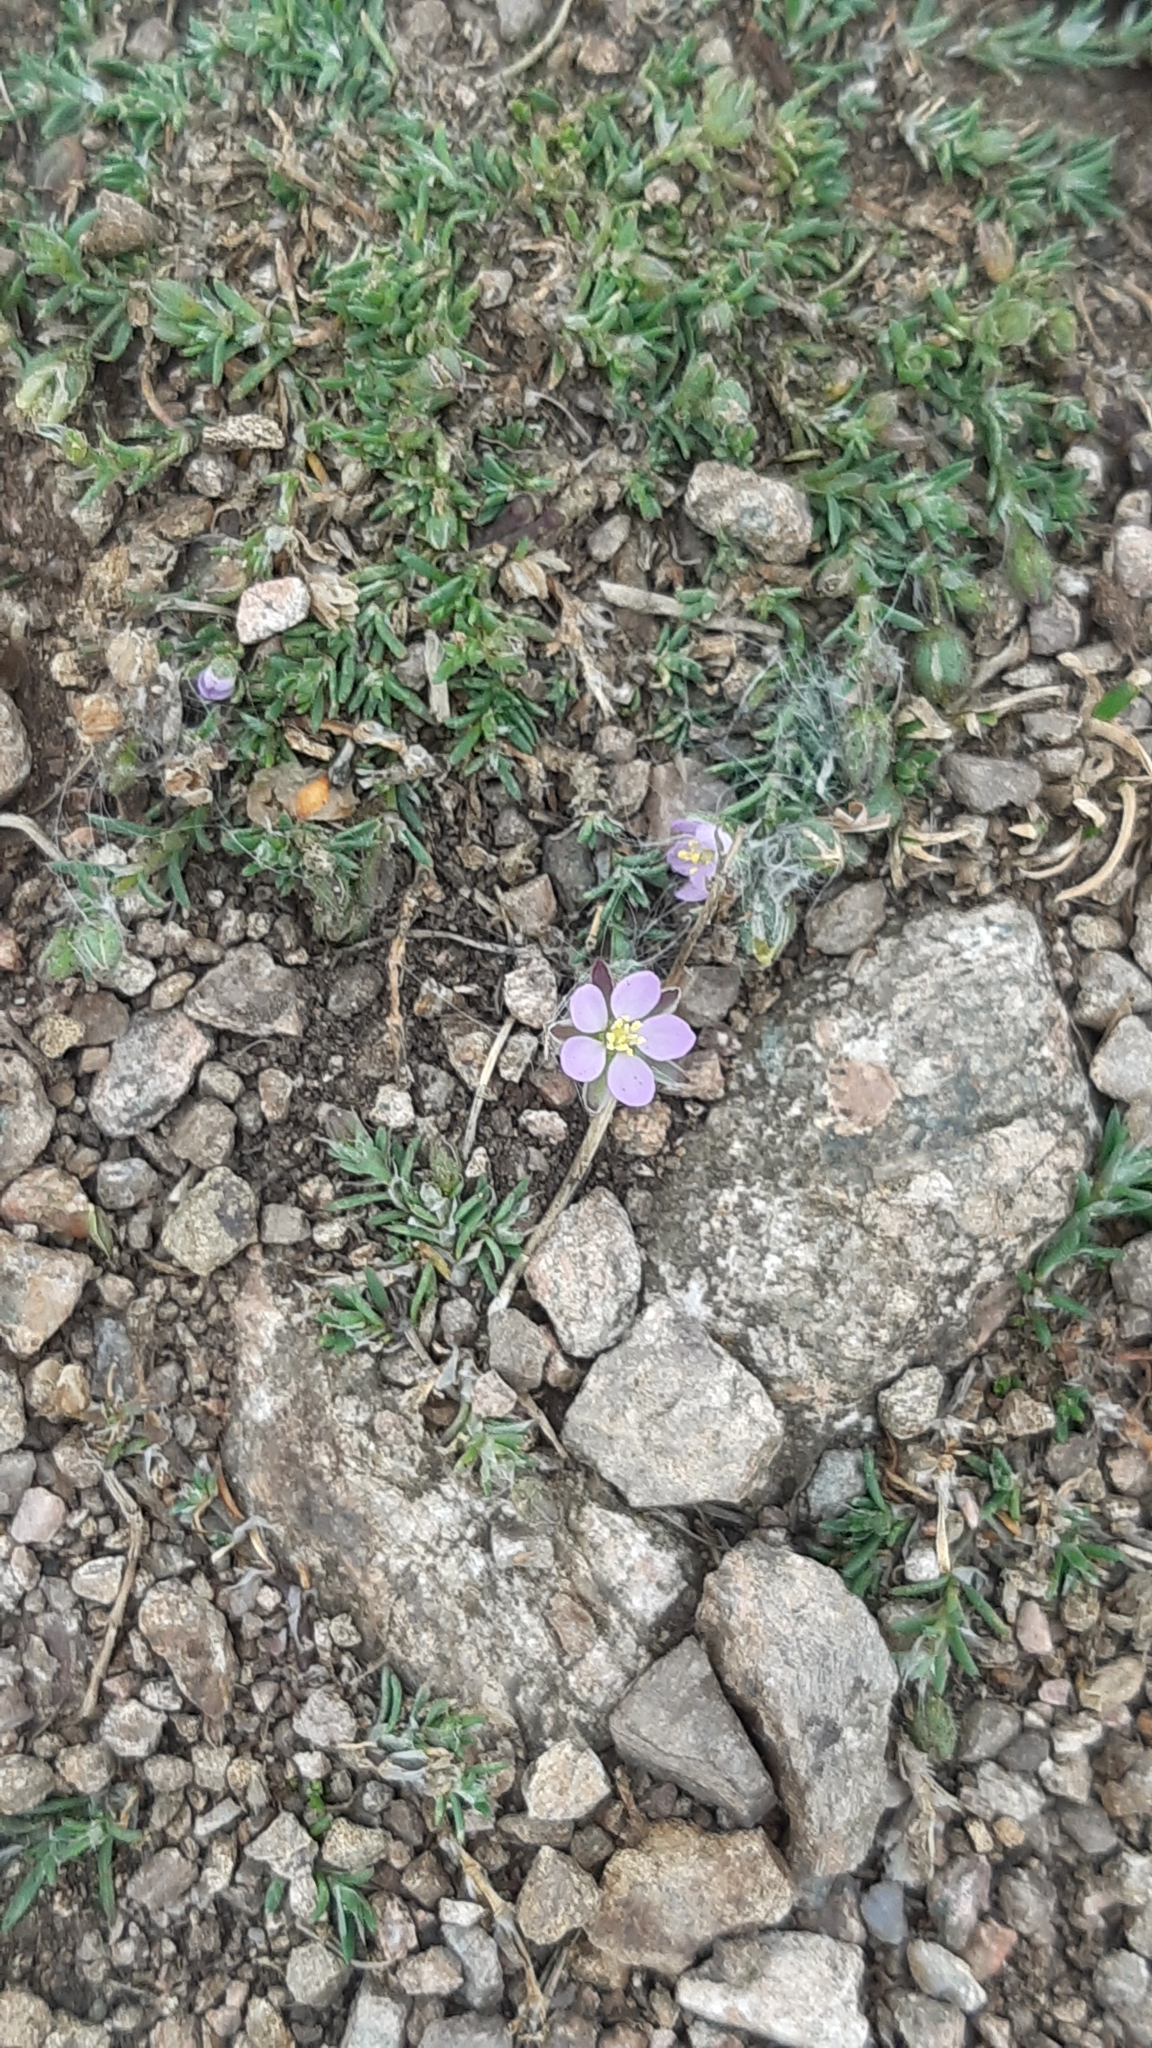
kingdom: Plantae
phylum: Tracheophyta
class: Magnoliopsida
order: Caryophyllales
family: Caryophyllaceae
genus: Spergularia
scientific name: Spergularia rubra
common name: Red sand-spurrey
